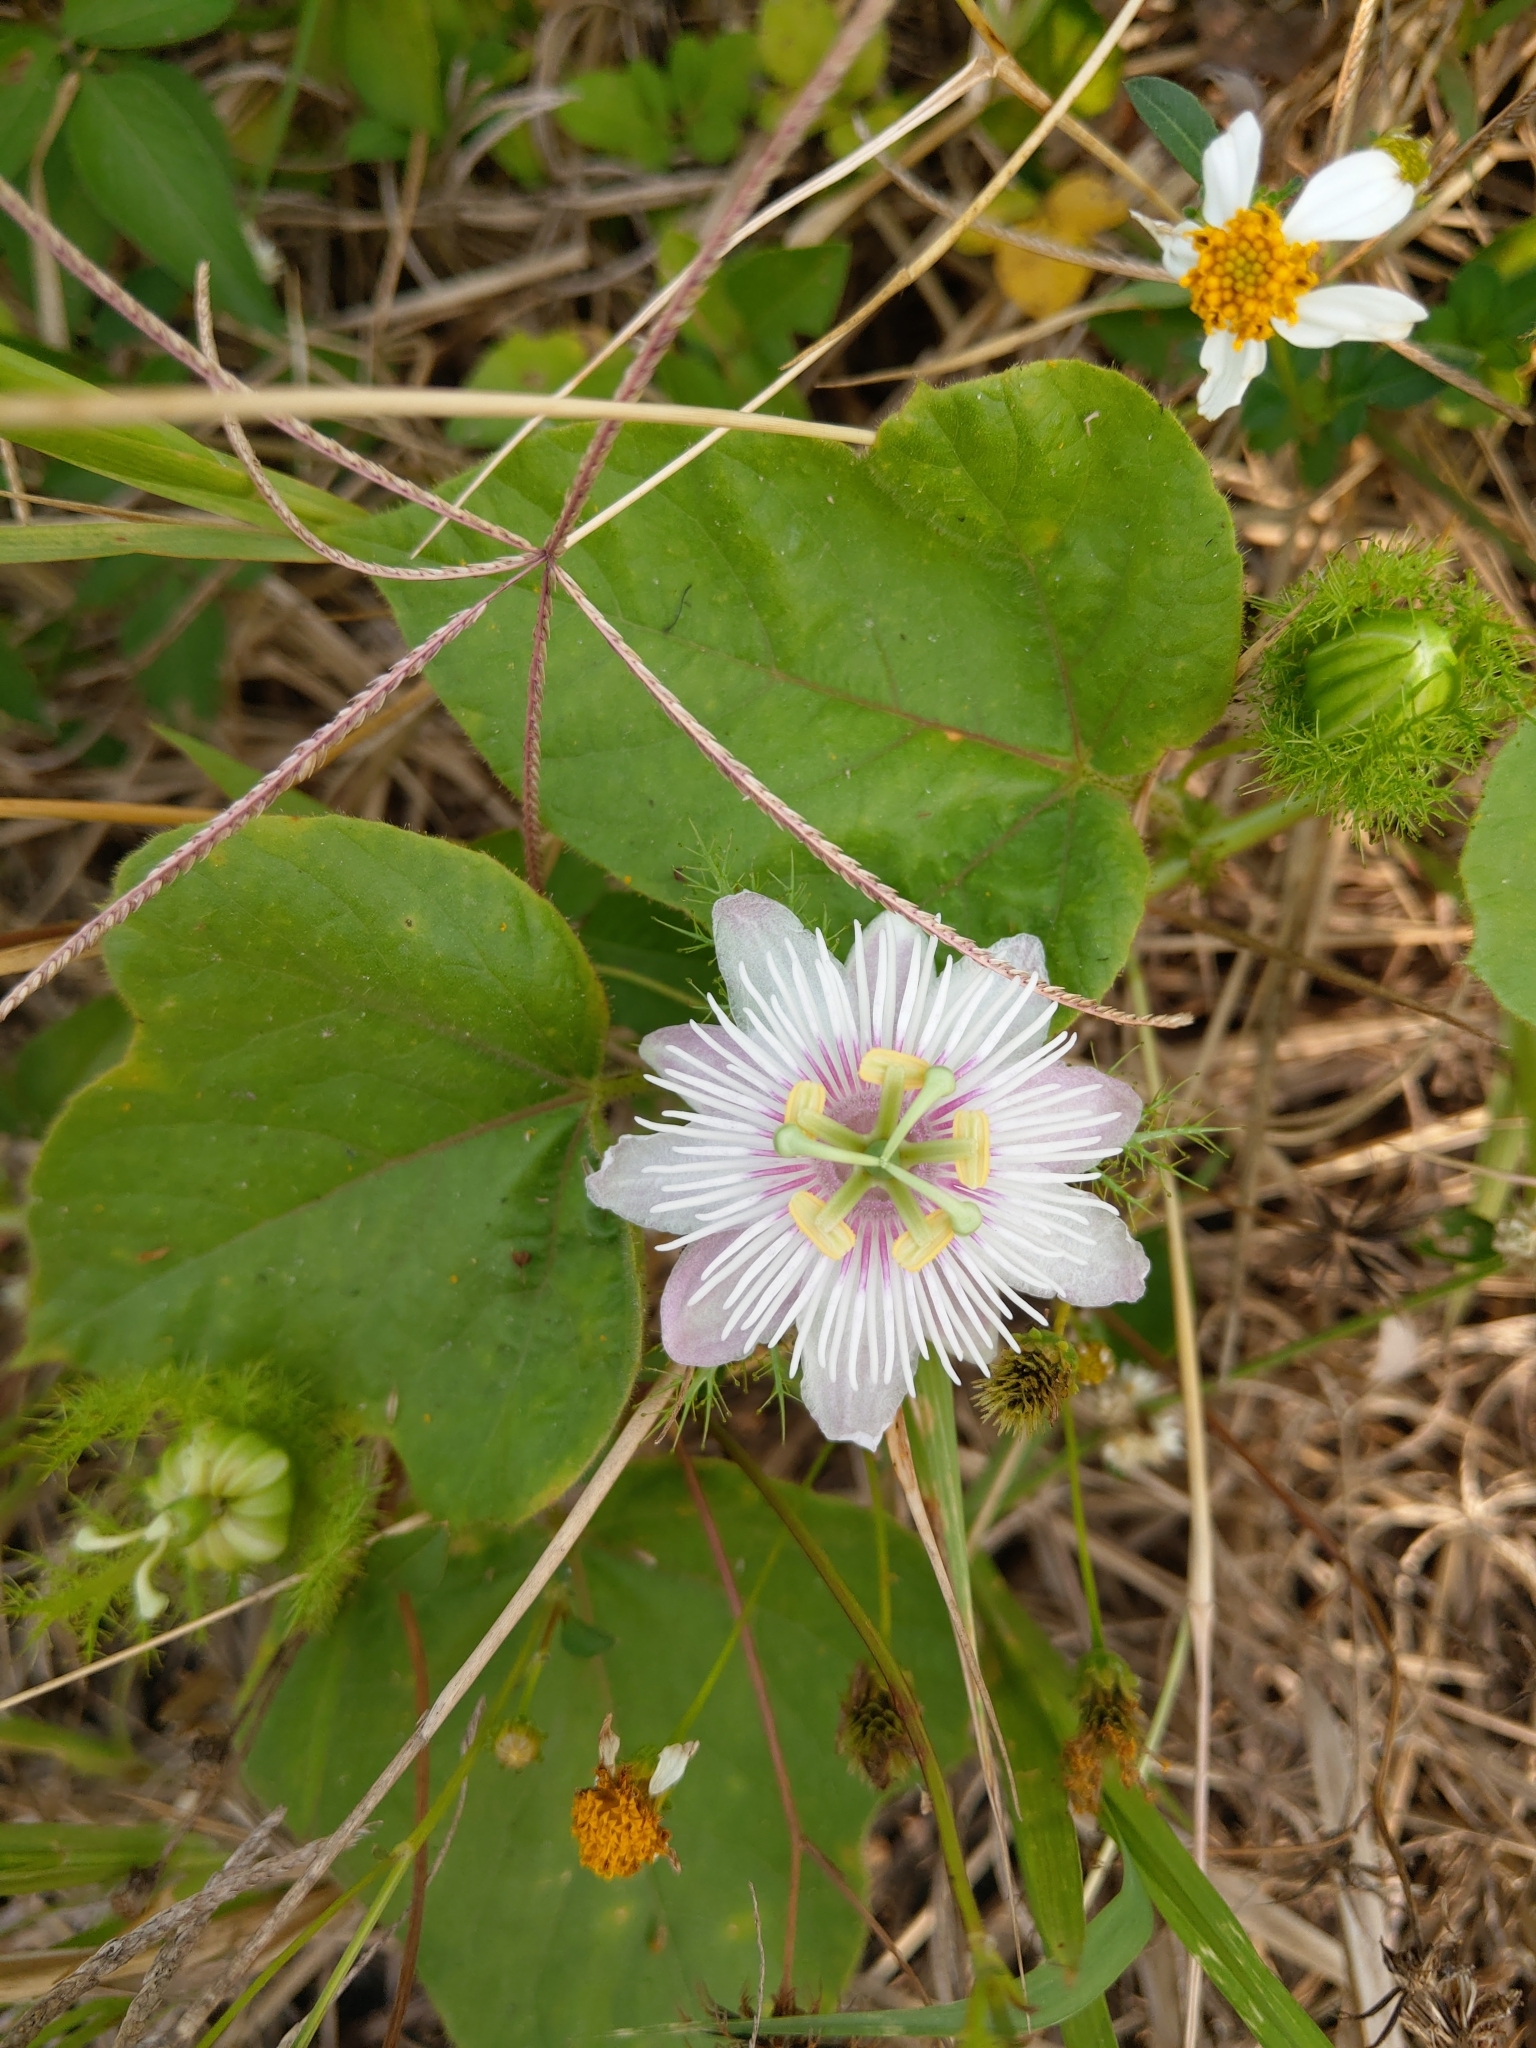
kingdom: Plantae
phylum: Tracheophyta
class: Magnoliopsida
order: Malpighiales
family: Passifloraceae
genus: Passiflora
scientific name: Passiflora vesicaria
